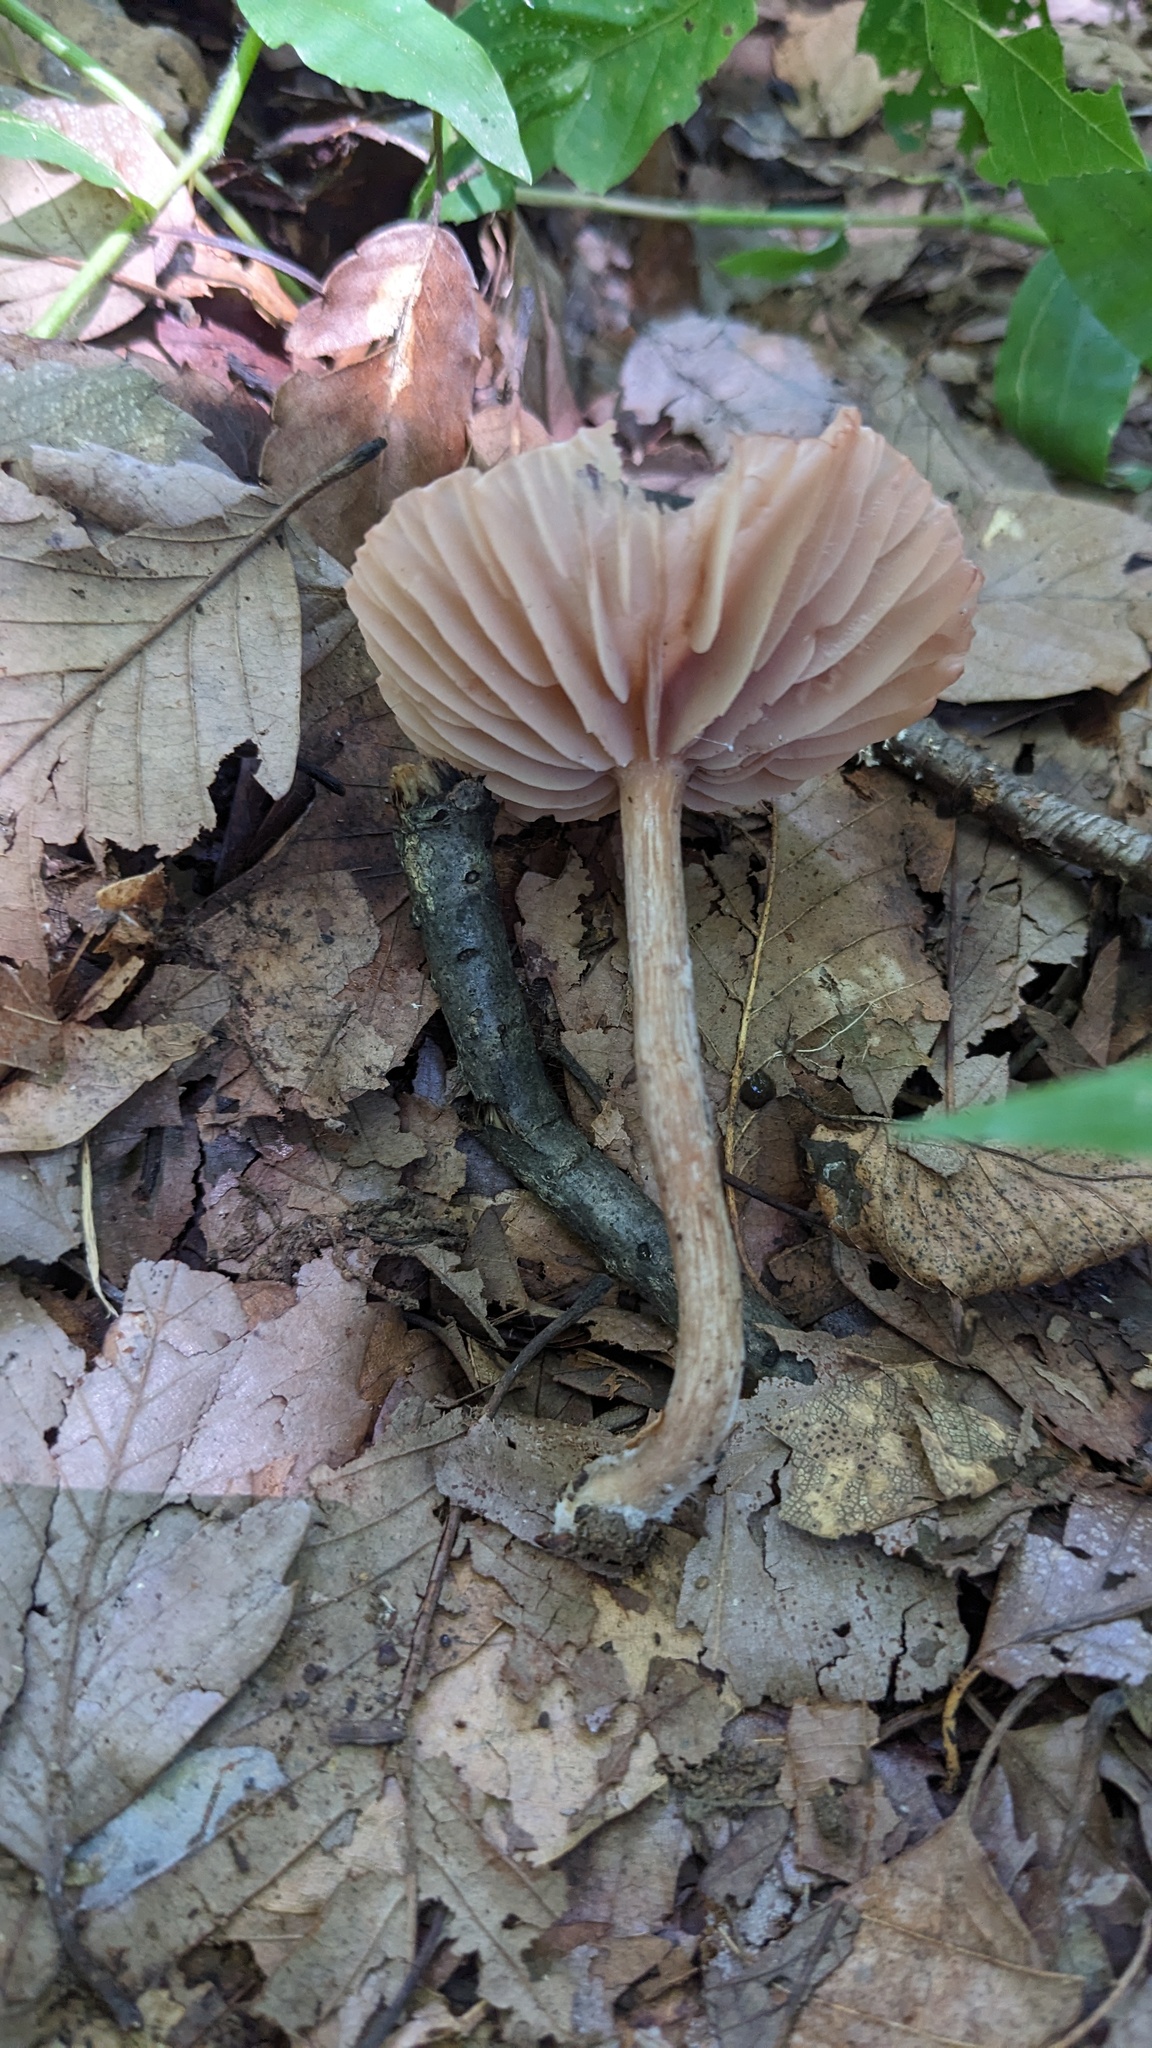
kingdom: Fungi
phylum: Basidiomycota
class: Agaricomycetes
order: Agaricales
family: Hydnangiaceae
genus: Laccaria
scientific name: Laccaria vinaceoavellanea
